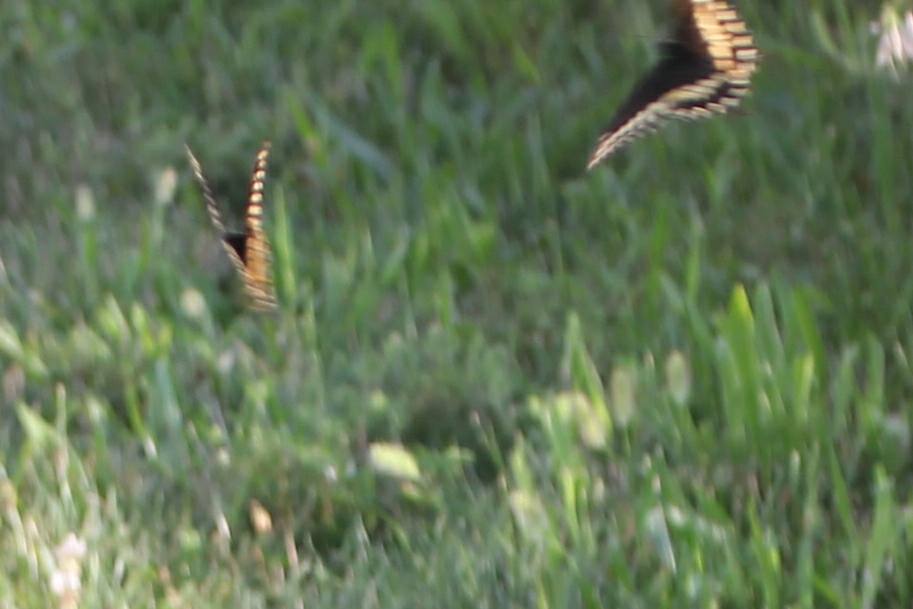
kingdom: Animalia
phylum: Arthropoda
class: Insecta
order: Lepidoptera
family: Papilionidae
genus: Papilio
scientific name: Papilio polyxenes
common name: Black swallowtail
